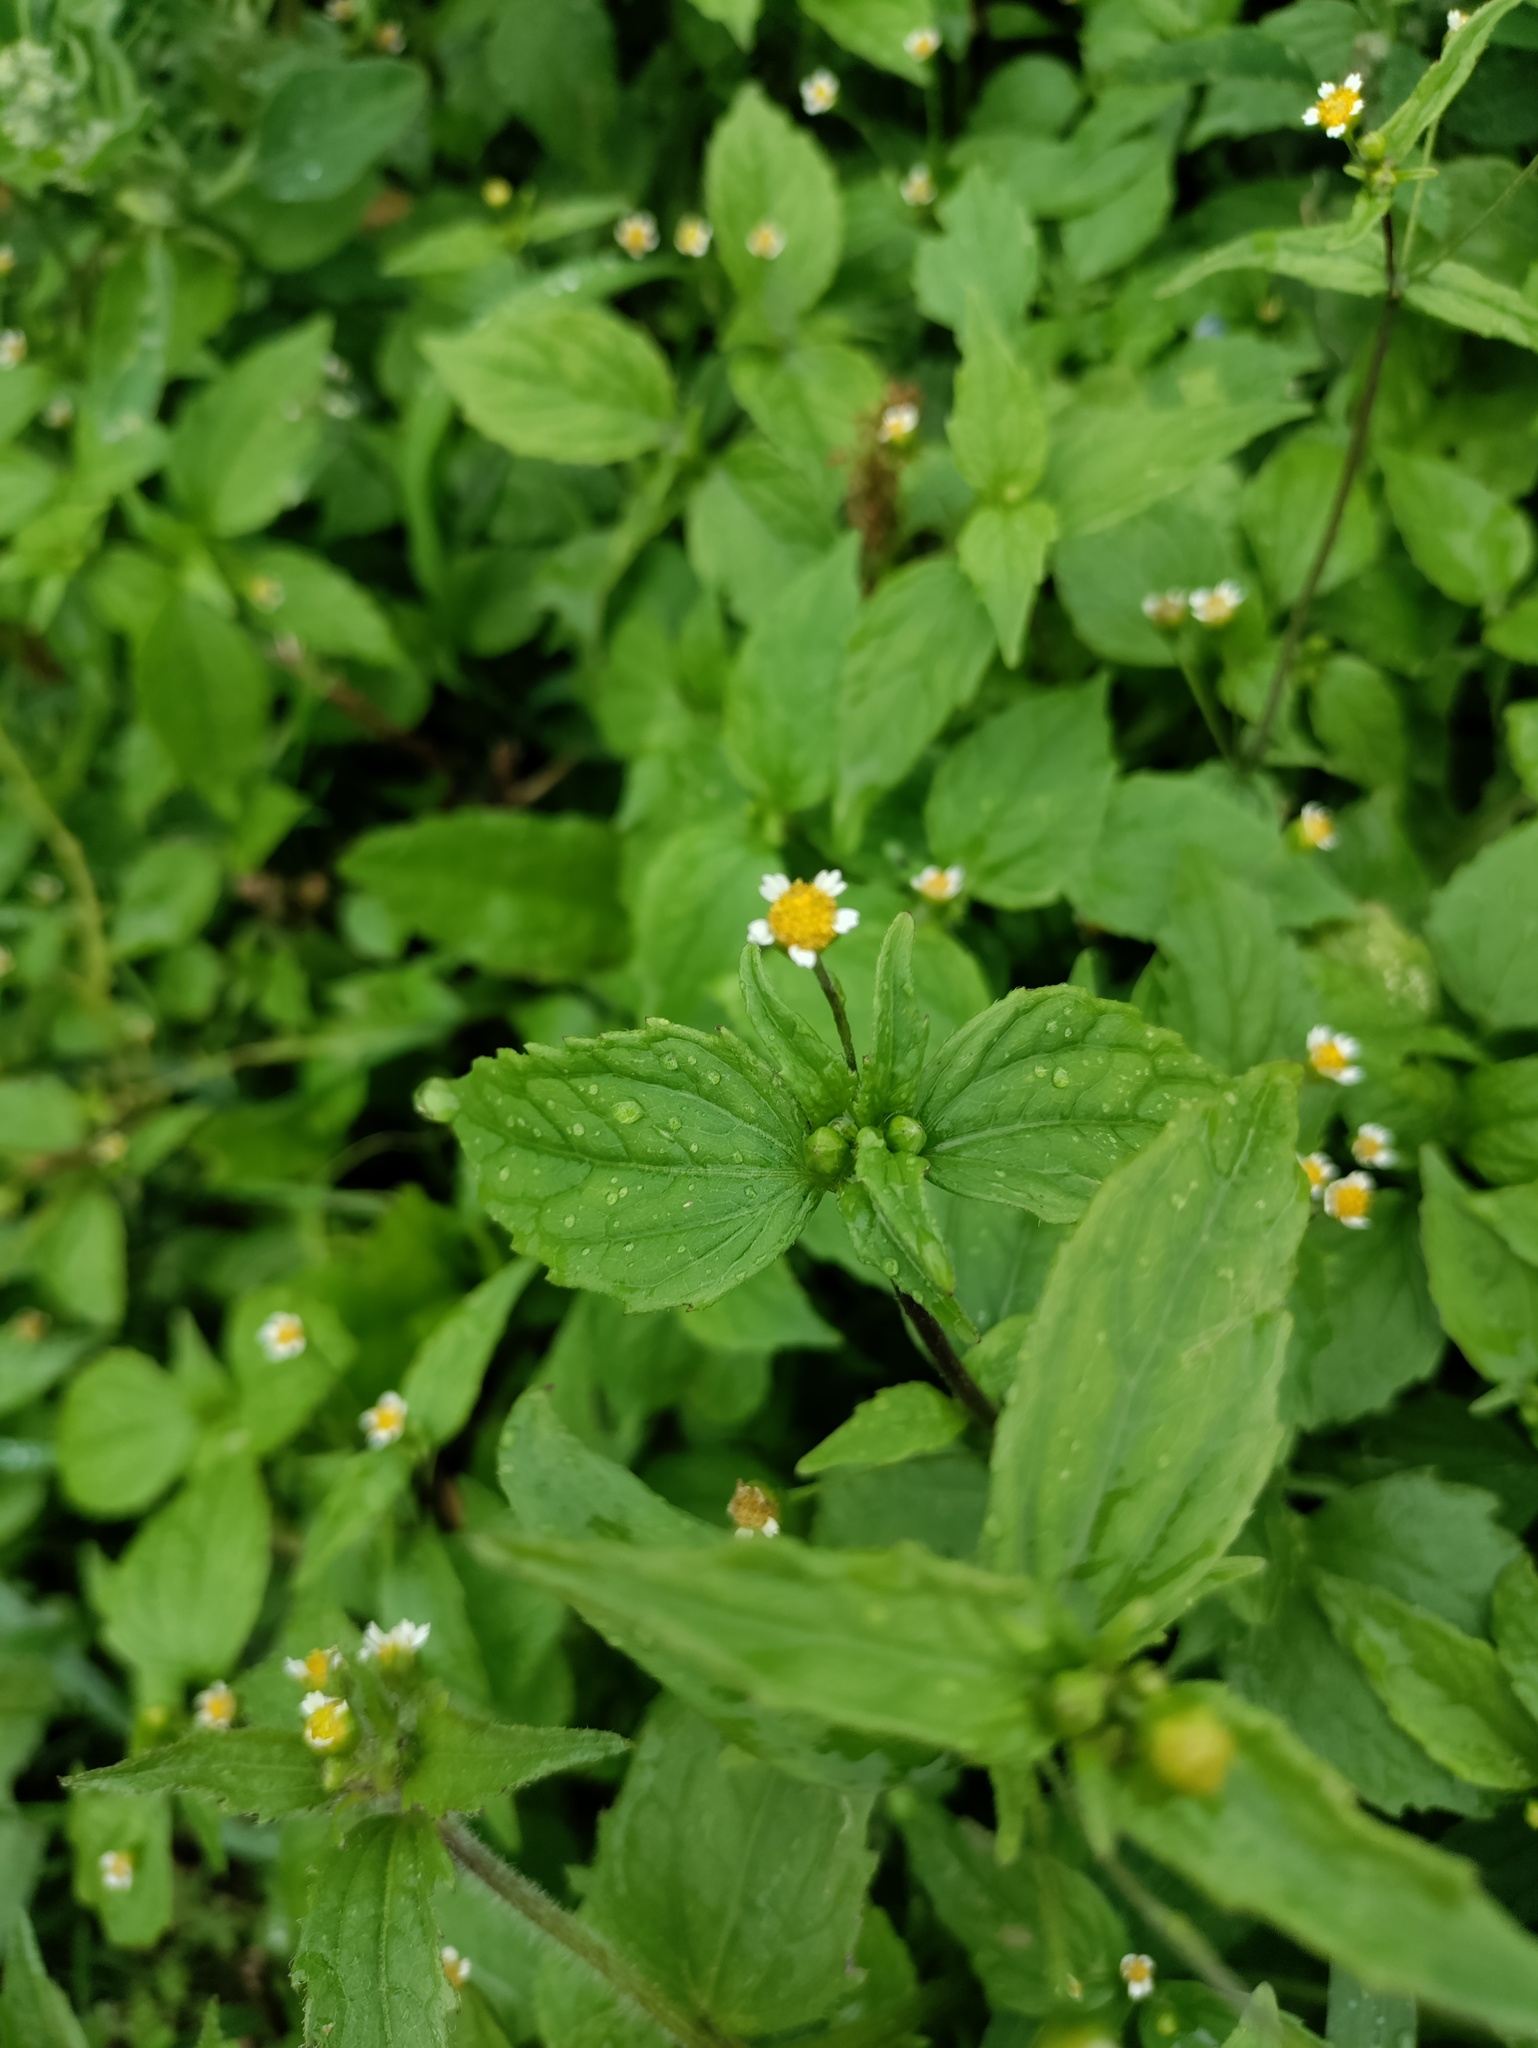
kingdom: Plantae
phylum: Tracheophyta
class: Magnoliopsida
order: Asterales
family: Asteraceae
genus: Galinsoga
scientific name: Galinsoga quadriradiata
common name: Shaggy soldier
